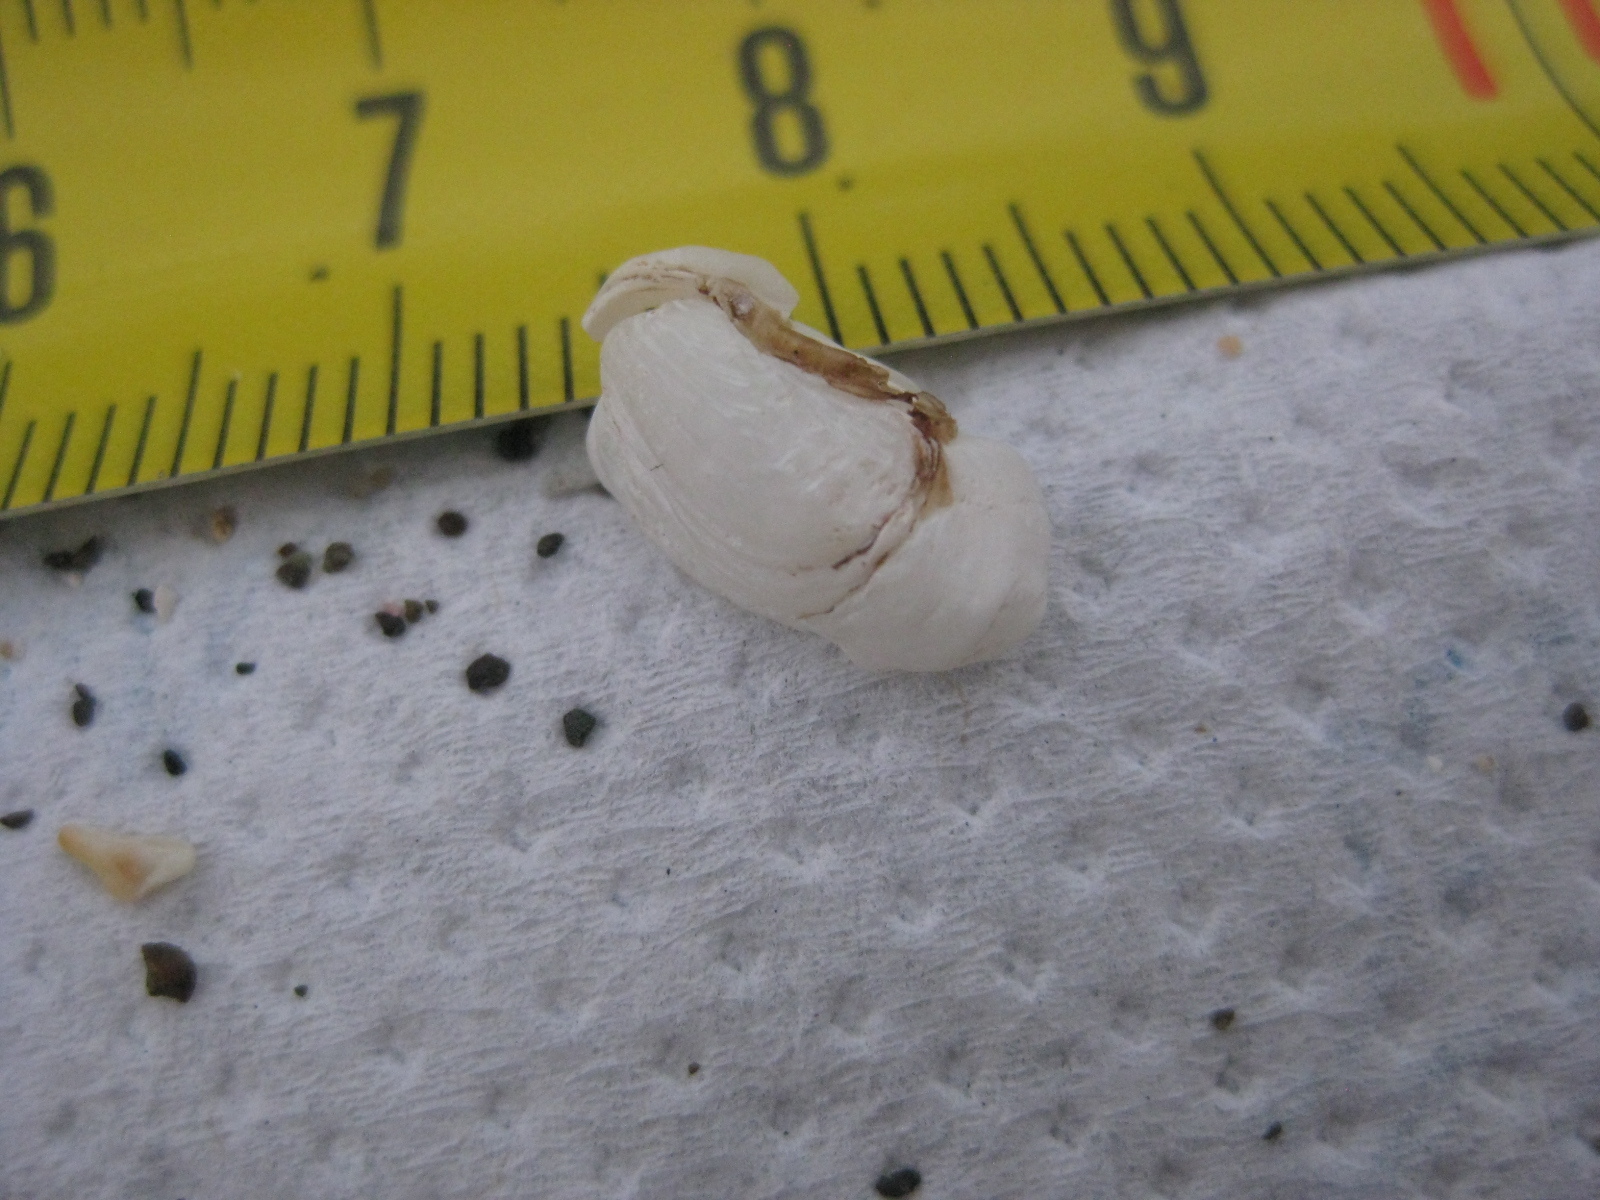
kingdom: Animalia
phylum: Mollusca
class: Bivalvia
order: Adapedonta
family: Hiatellidae
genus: Hiatella
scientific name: Hiatella arctica
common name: Arctic hiatella
